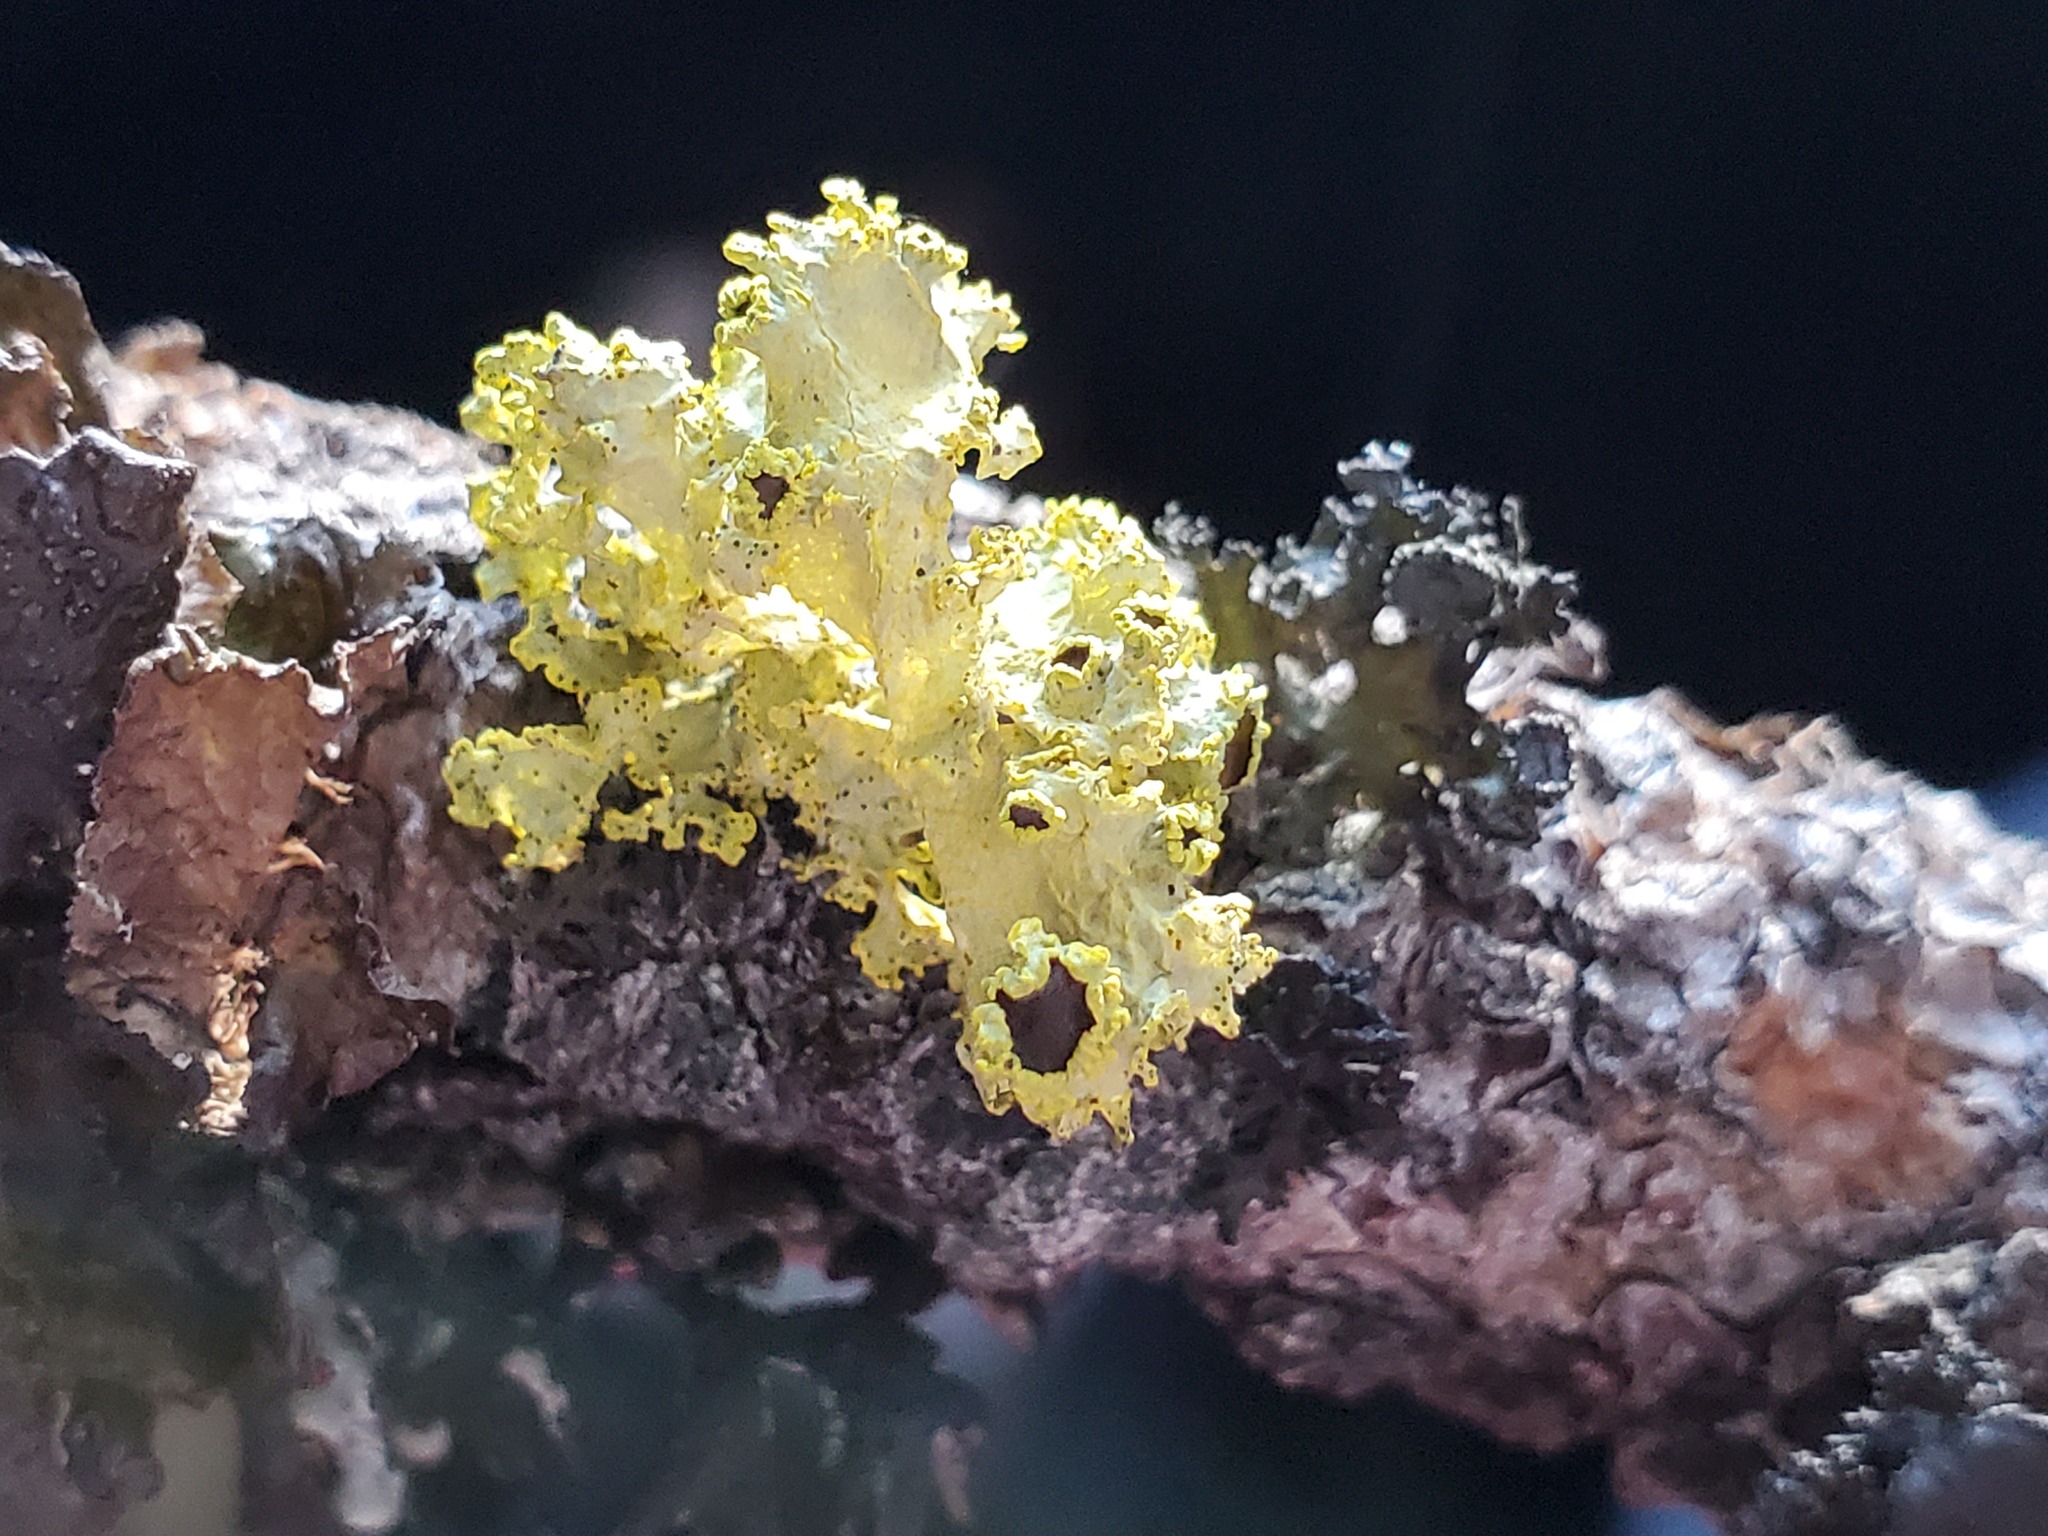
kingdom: Fungi
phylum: Ascomycota
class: Lecanoromycetes
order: Lecanorales
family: Parmeliaceae
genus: Vulpicida
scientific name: Vulpicida canadensis
